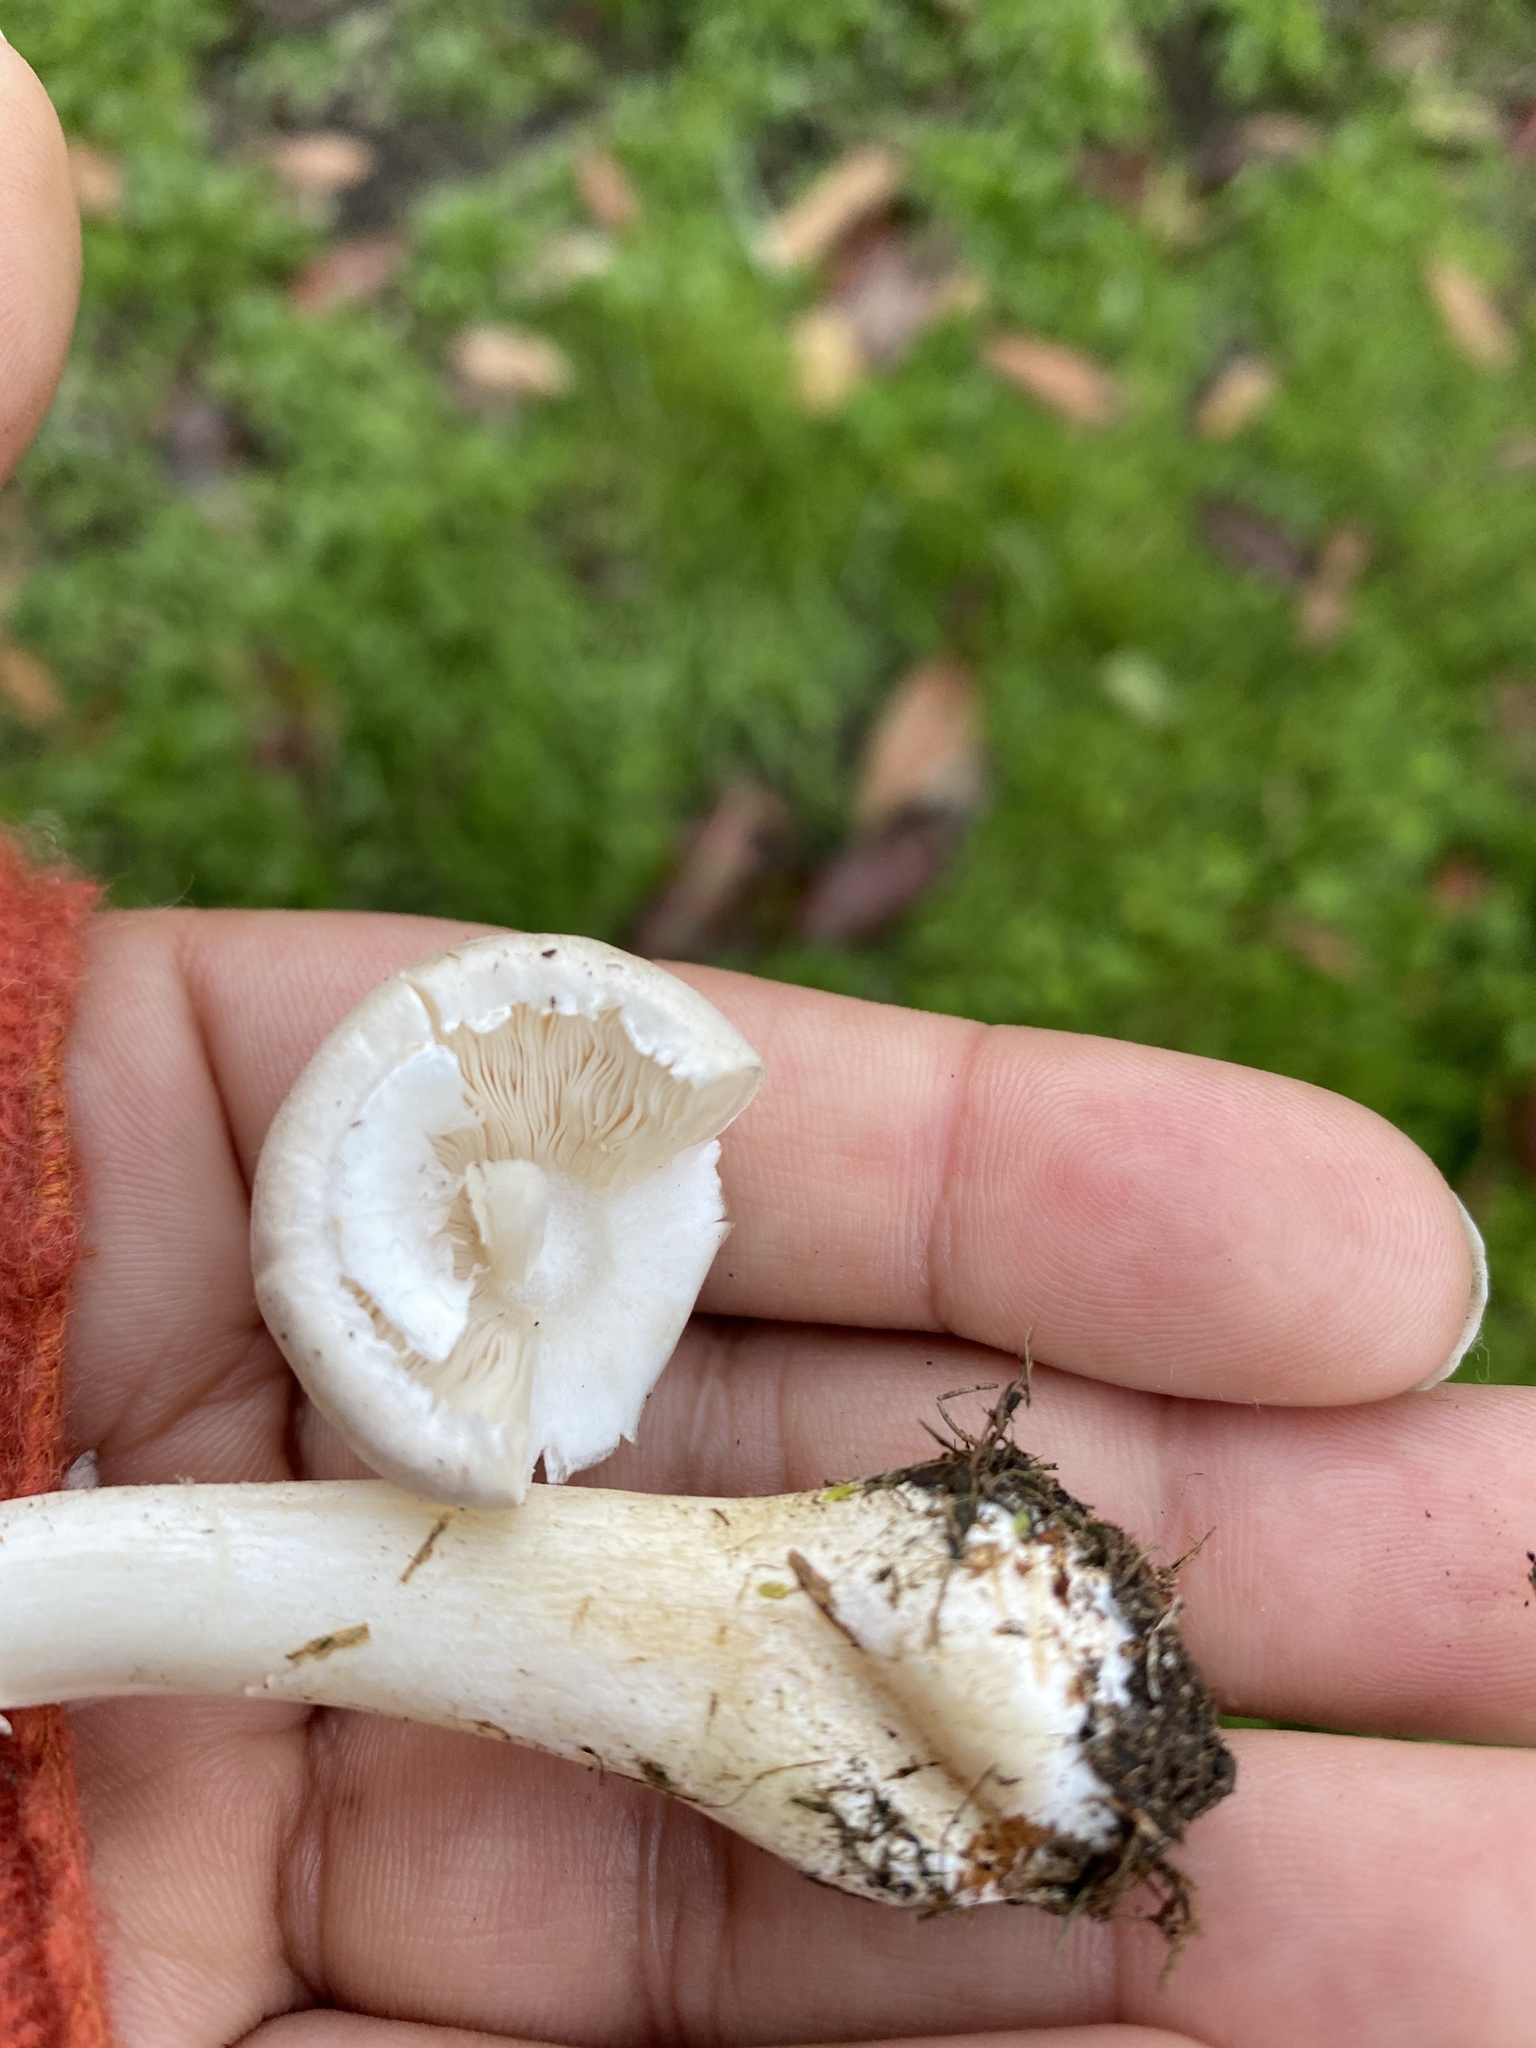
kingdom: Fungi
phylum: Basidiomycota
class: Agaricomycetes
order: Agaricales
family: Agaricaceae
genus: Leucoagaricus
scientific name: Leucoagaricus leucothites
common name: White dapperling
